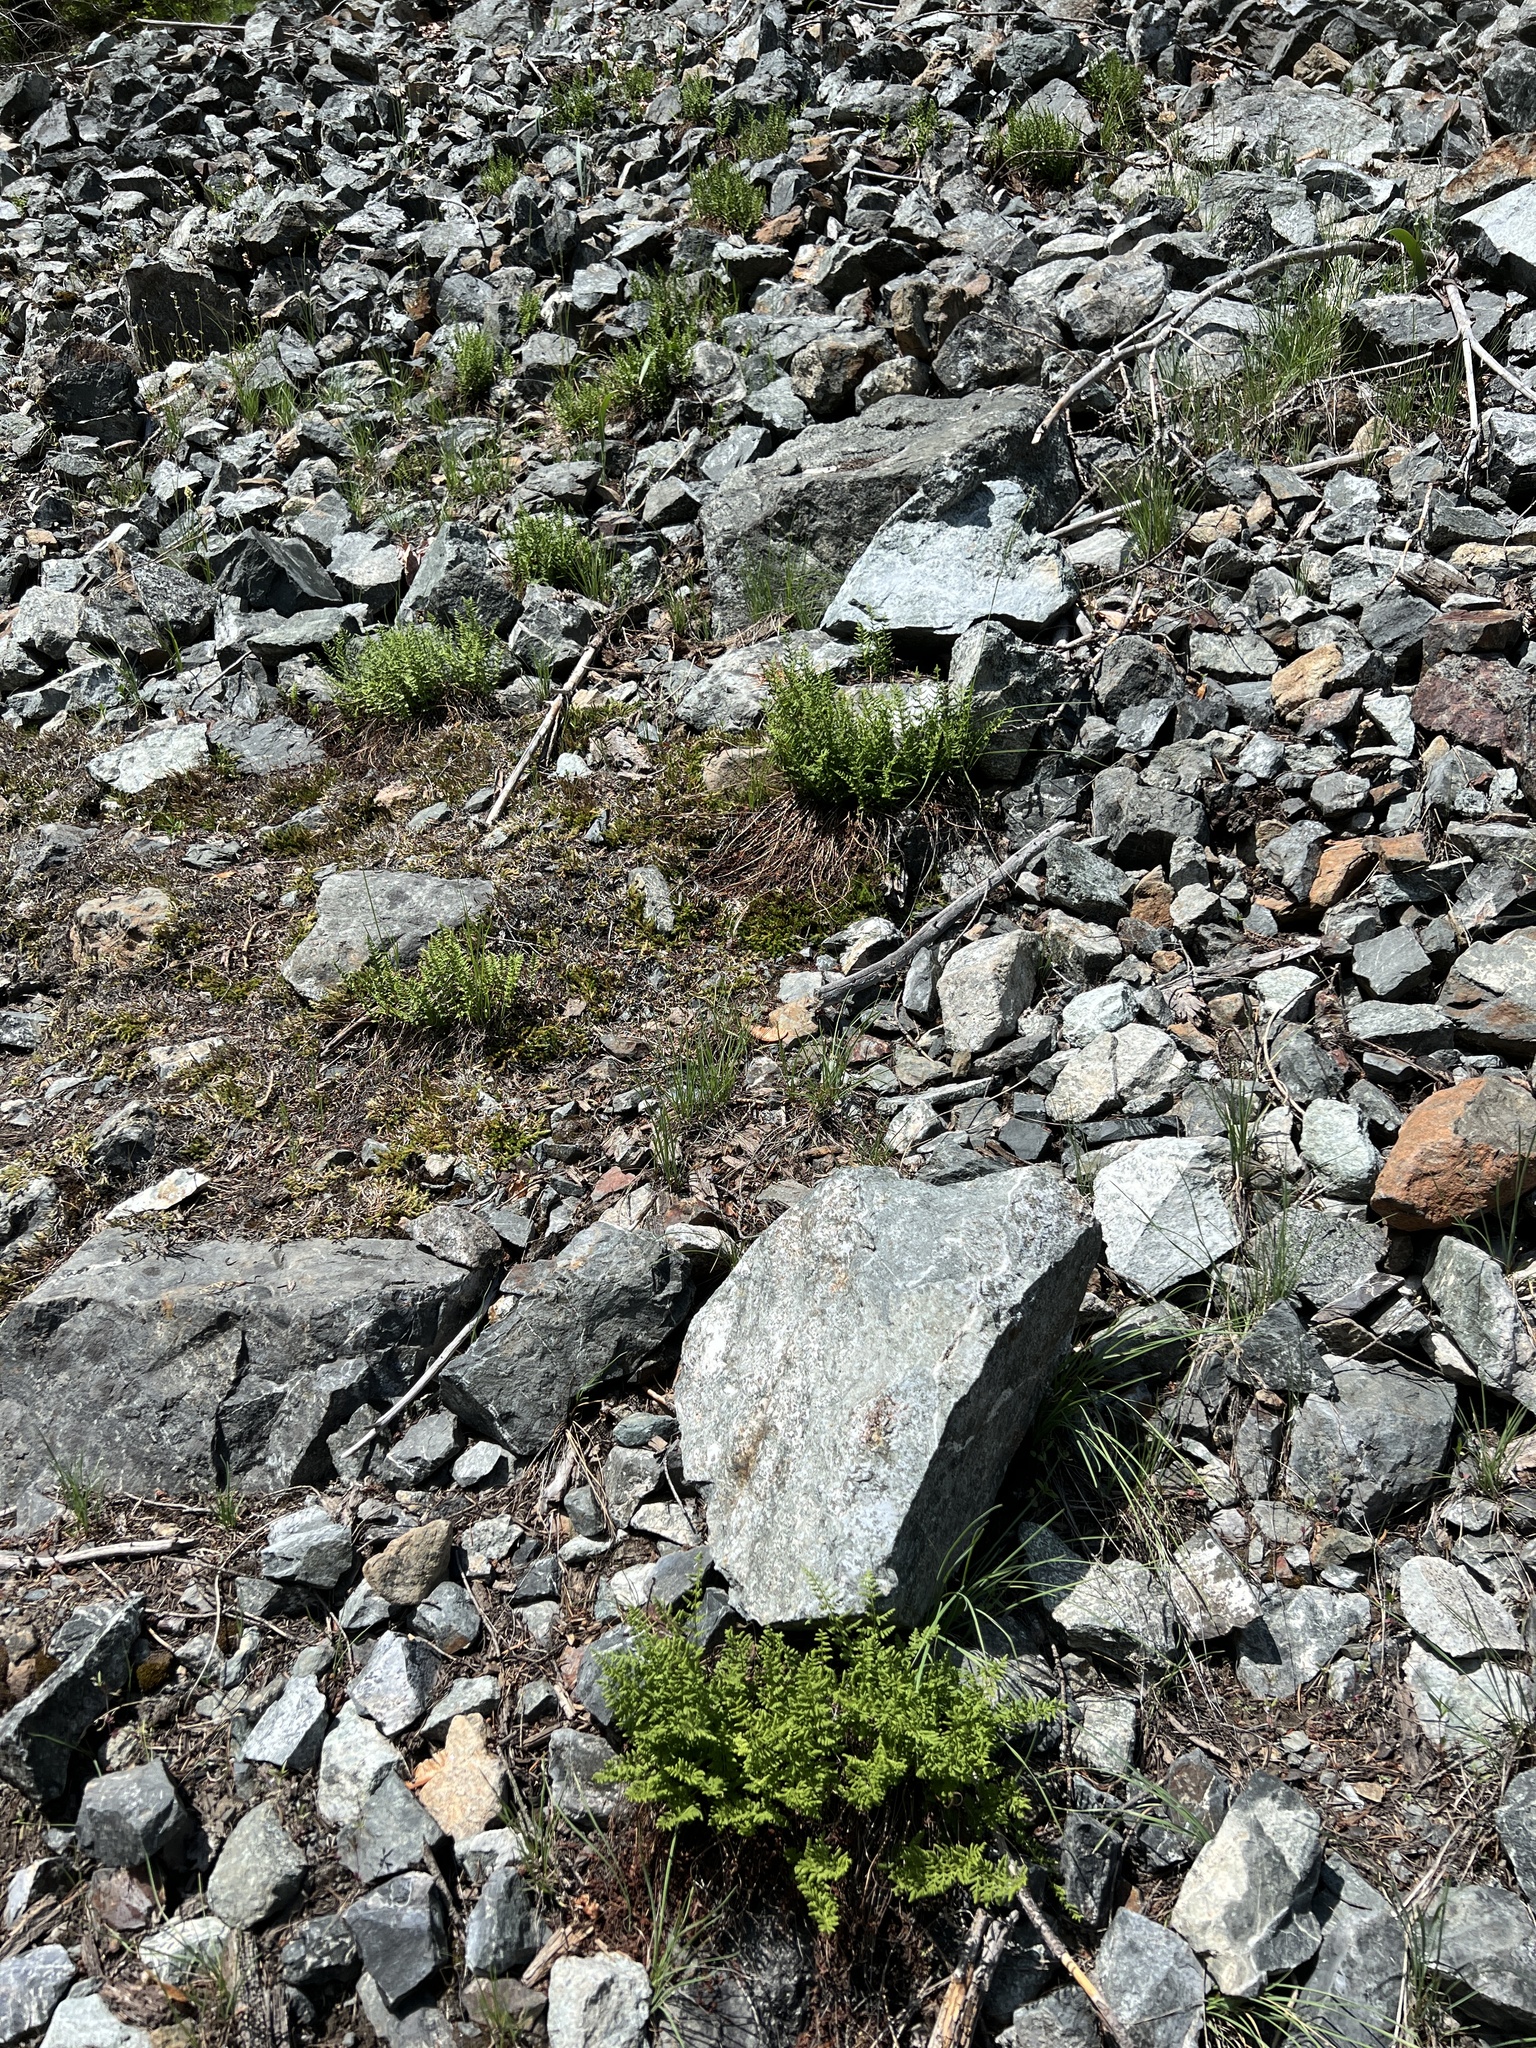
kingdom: Plantae
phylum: Tracheophyta
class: Polypodiopsida
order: Polypodiales
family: Woodsiaceae
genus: Physematium
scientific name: Physematium scopulinum
